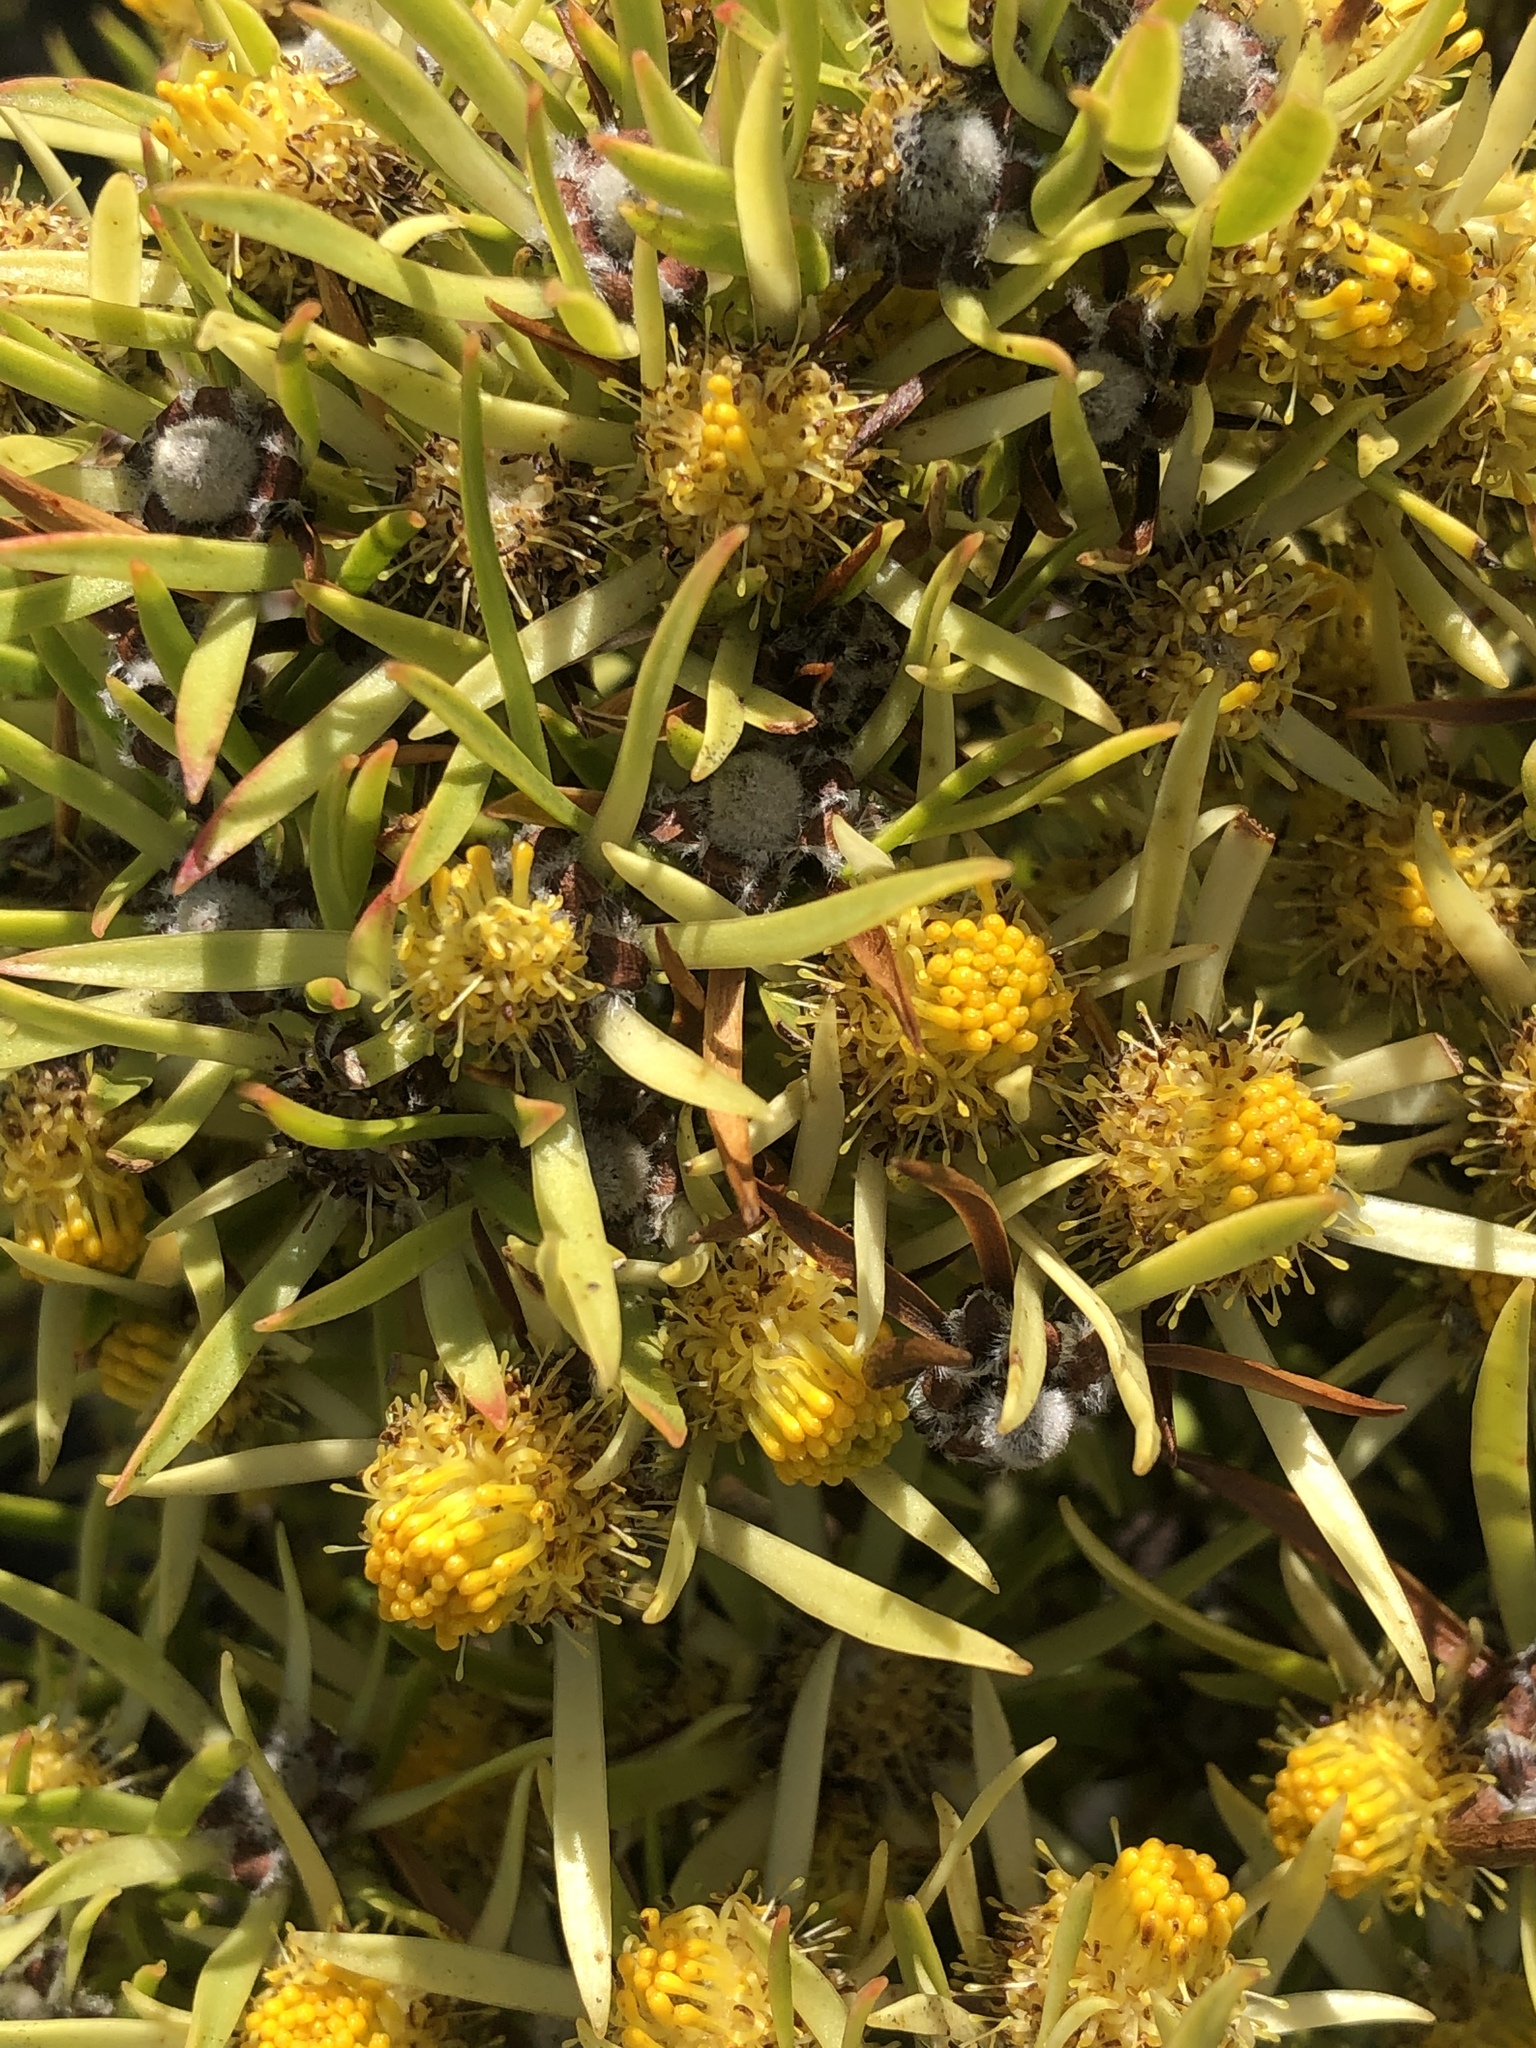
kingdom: Plantae
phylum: Tracheophyta
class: Magnoliopsida
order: Proteales
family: Proteaceae
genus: Leucadendron
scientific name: Leucadendron salignum
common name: Common sunshine conebush
